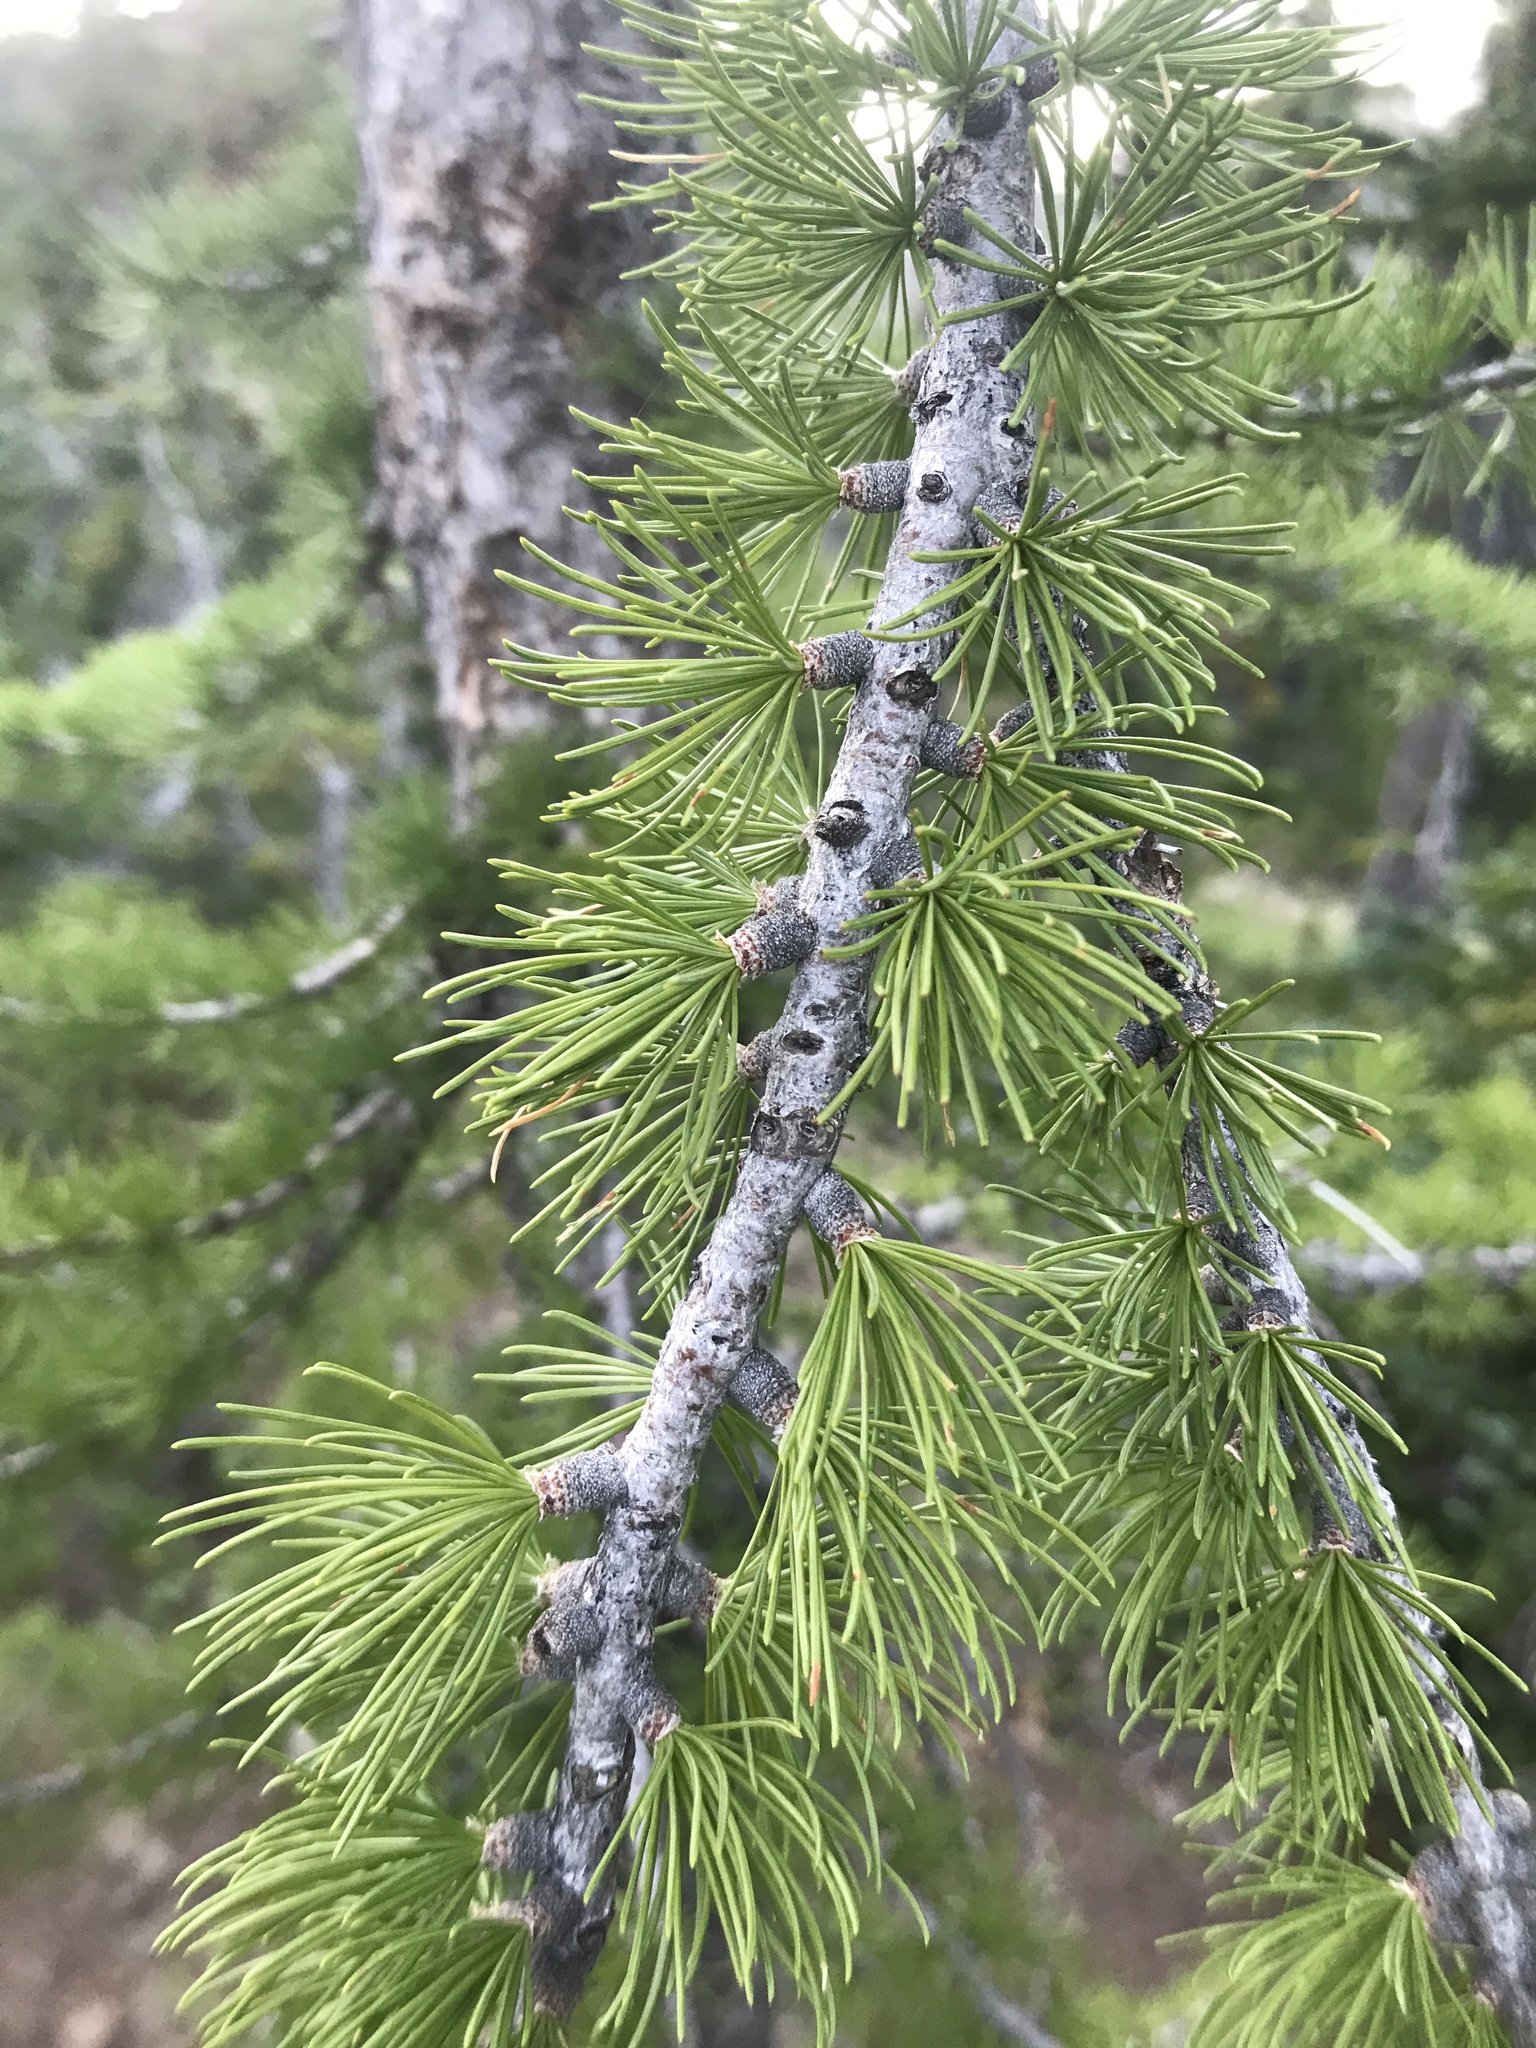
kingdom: Plantae
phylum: Tracheophyta
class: Pinopsida
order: Pinales
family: Pinaceae
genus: Larix
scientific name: Larix lyallii
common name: Alpine larch
